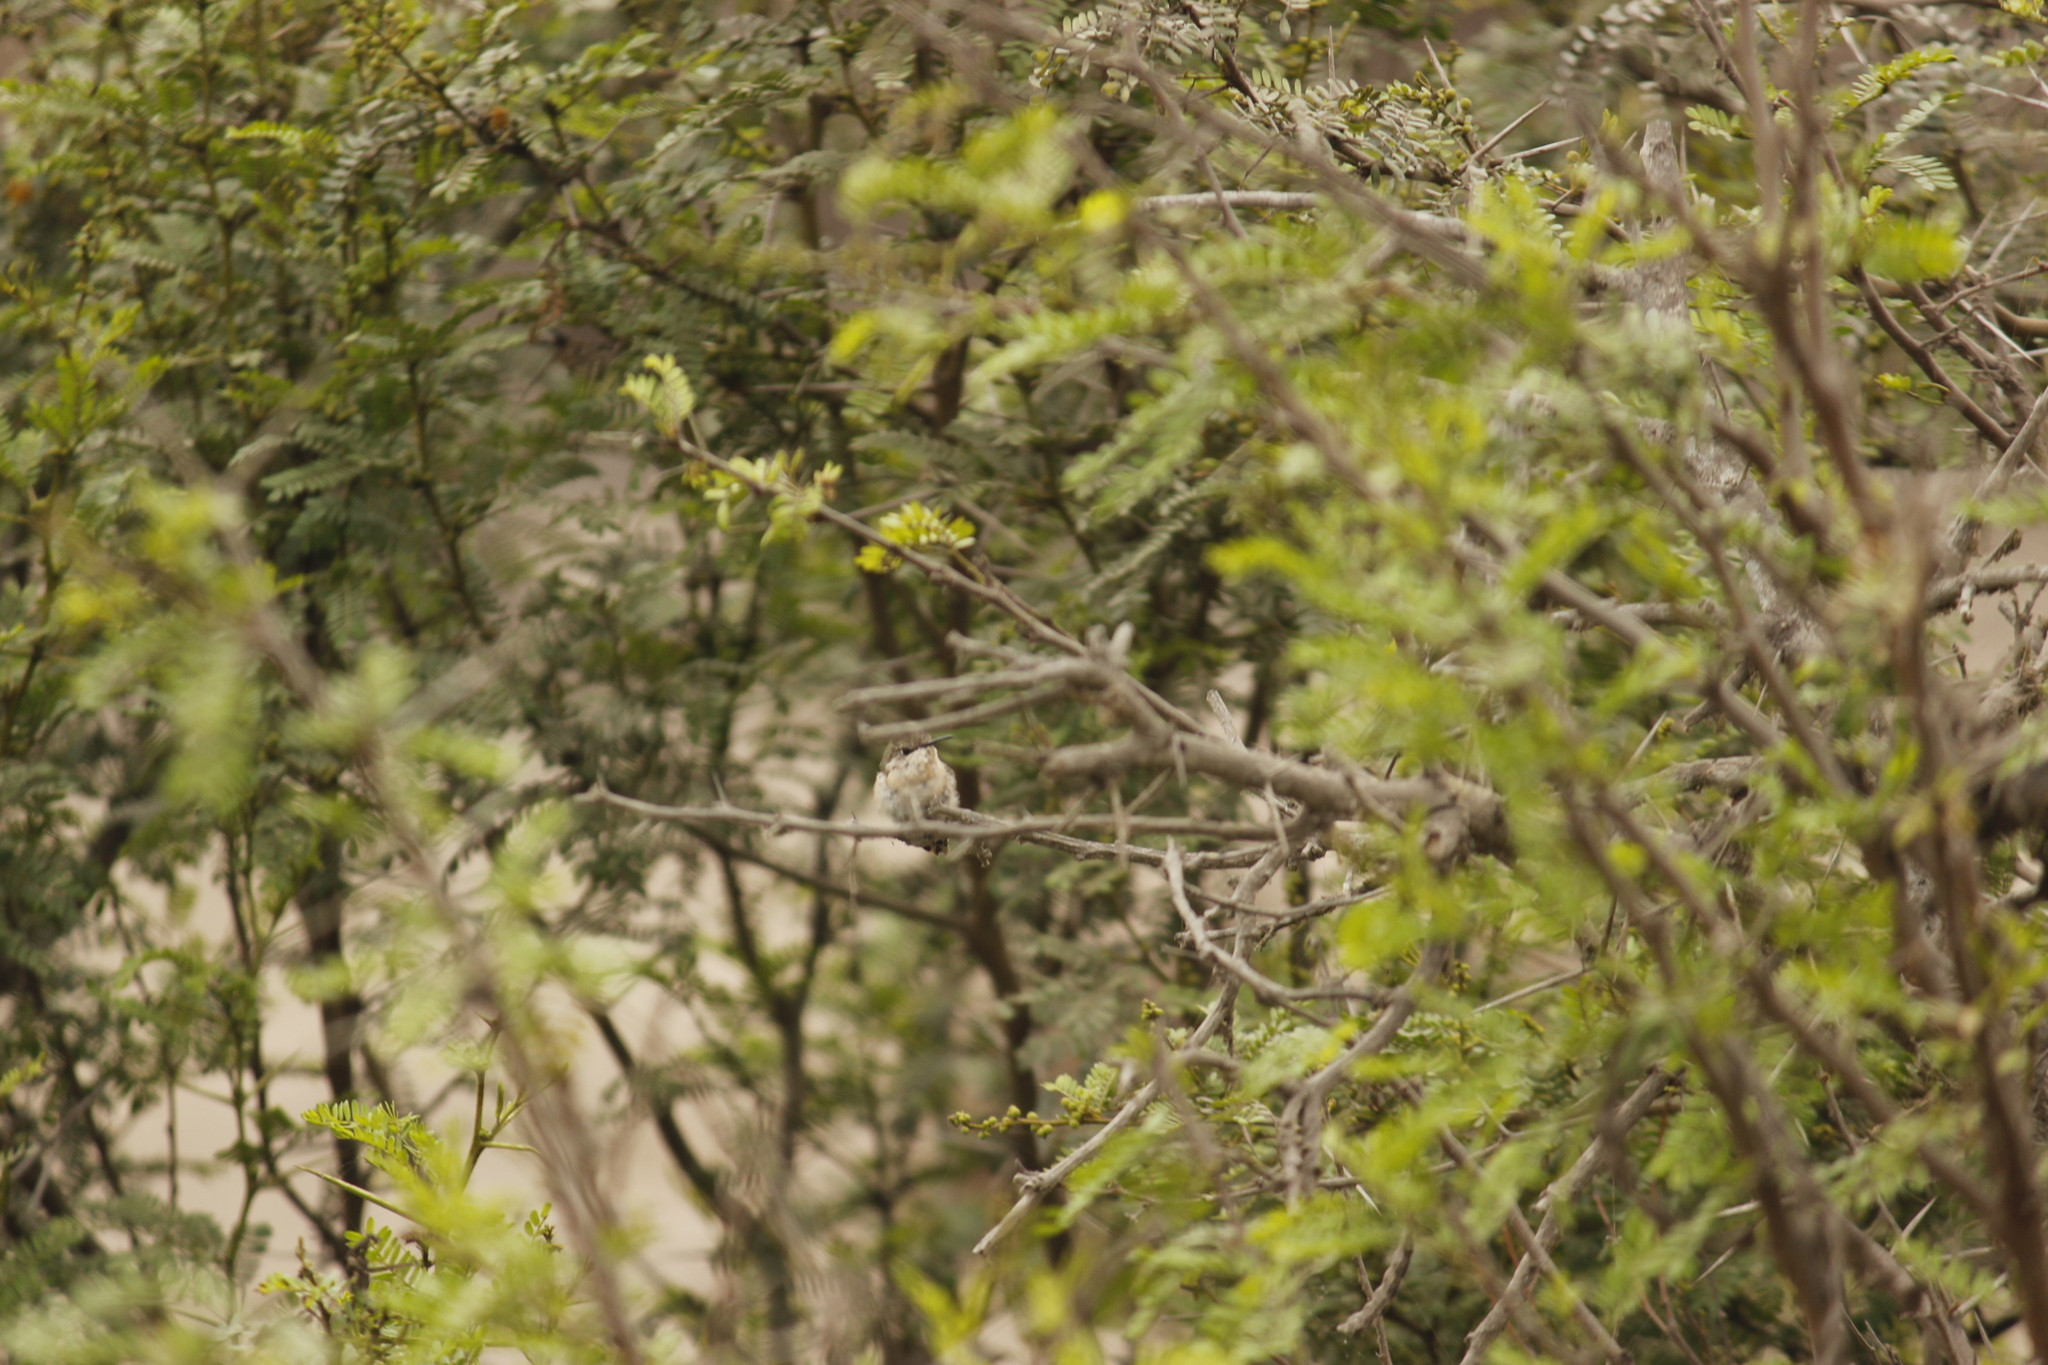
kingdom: Animalia
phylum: Chordata
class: Aves
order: Apodiformes
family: Trochilidae
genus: Myrtis
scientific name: Myrtis fanny
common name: Purple-collared woodstar
